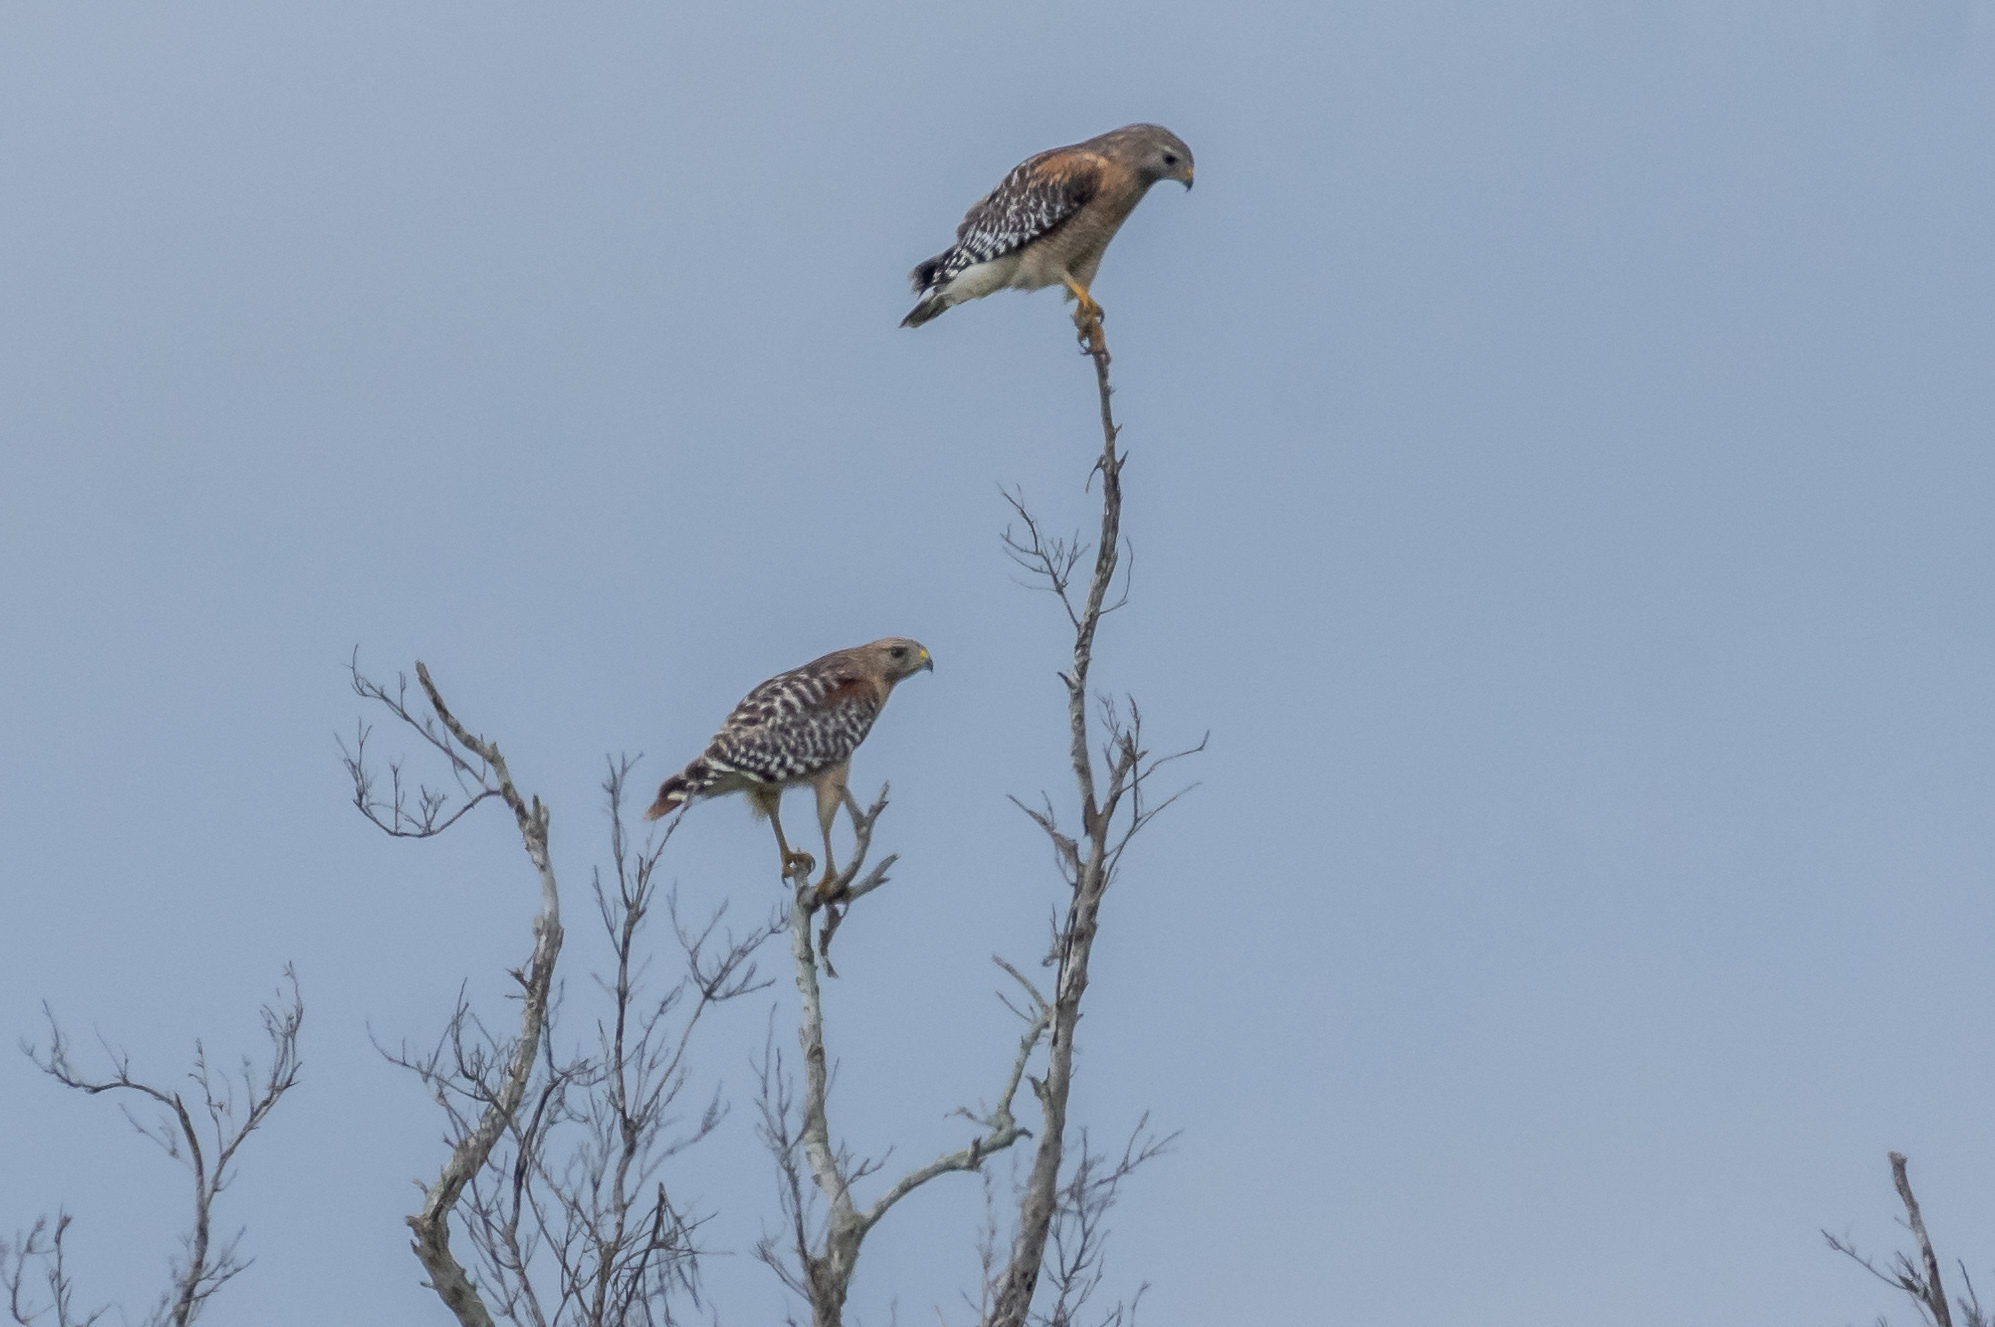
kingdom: Animalia
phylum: Chordata
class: Aves
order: Accipitriformes
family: Accipitridae
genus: Buteo
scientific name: Buteo lineatus
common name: Red-shouldered hawk
